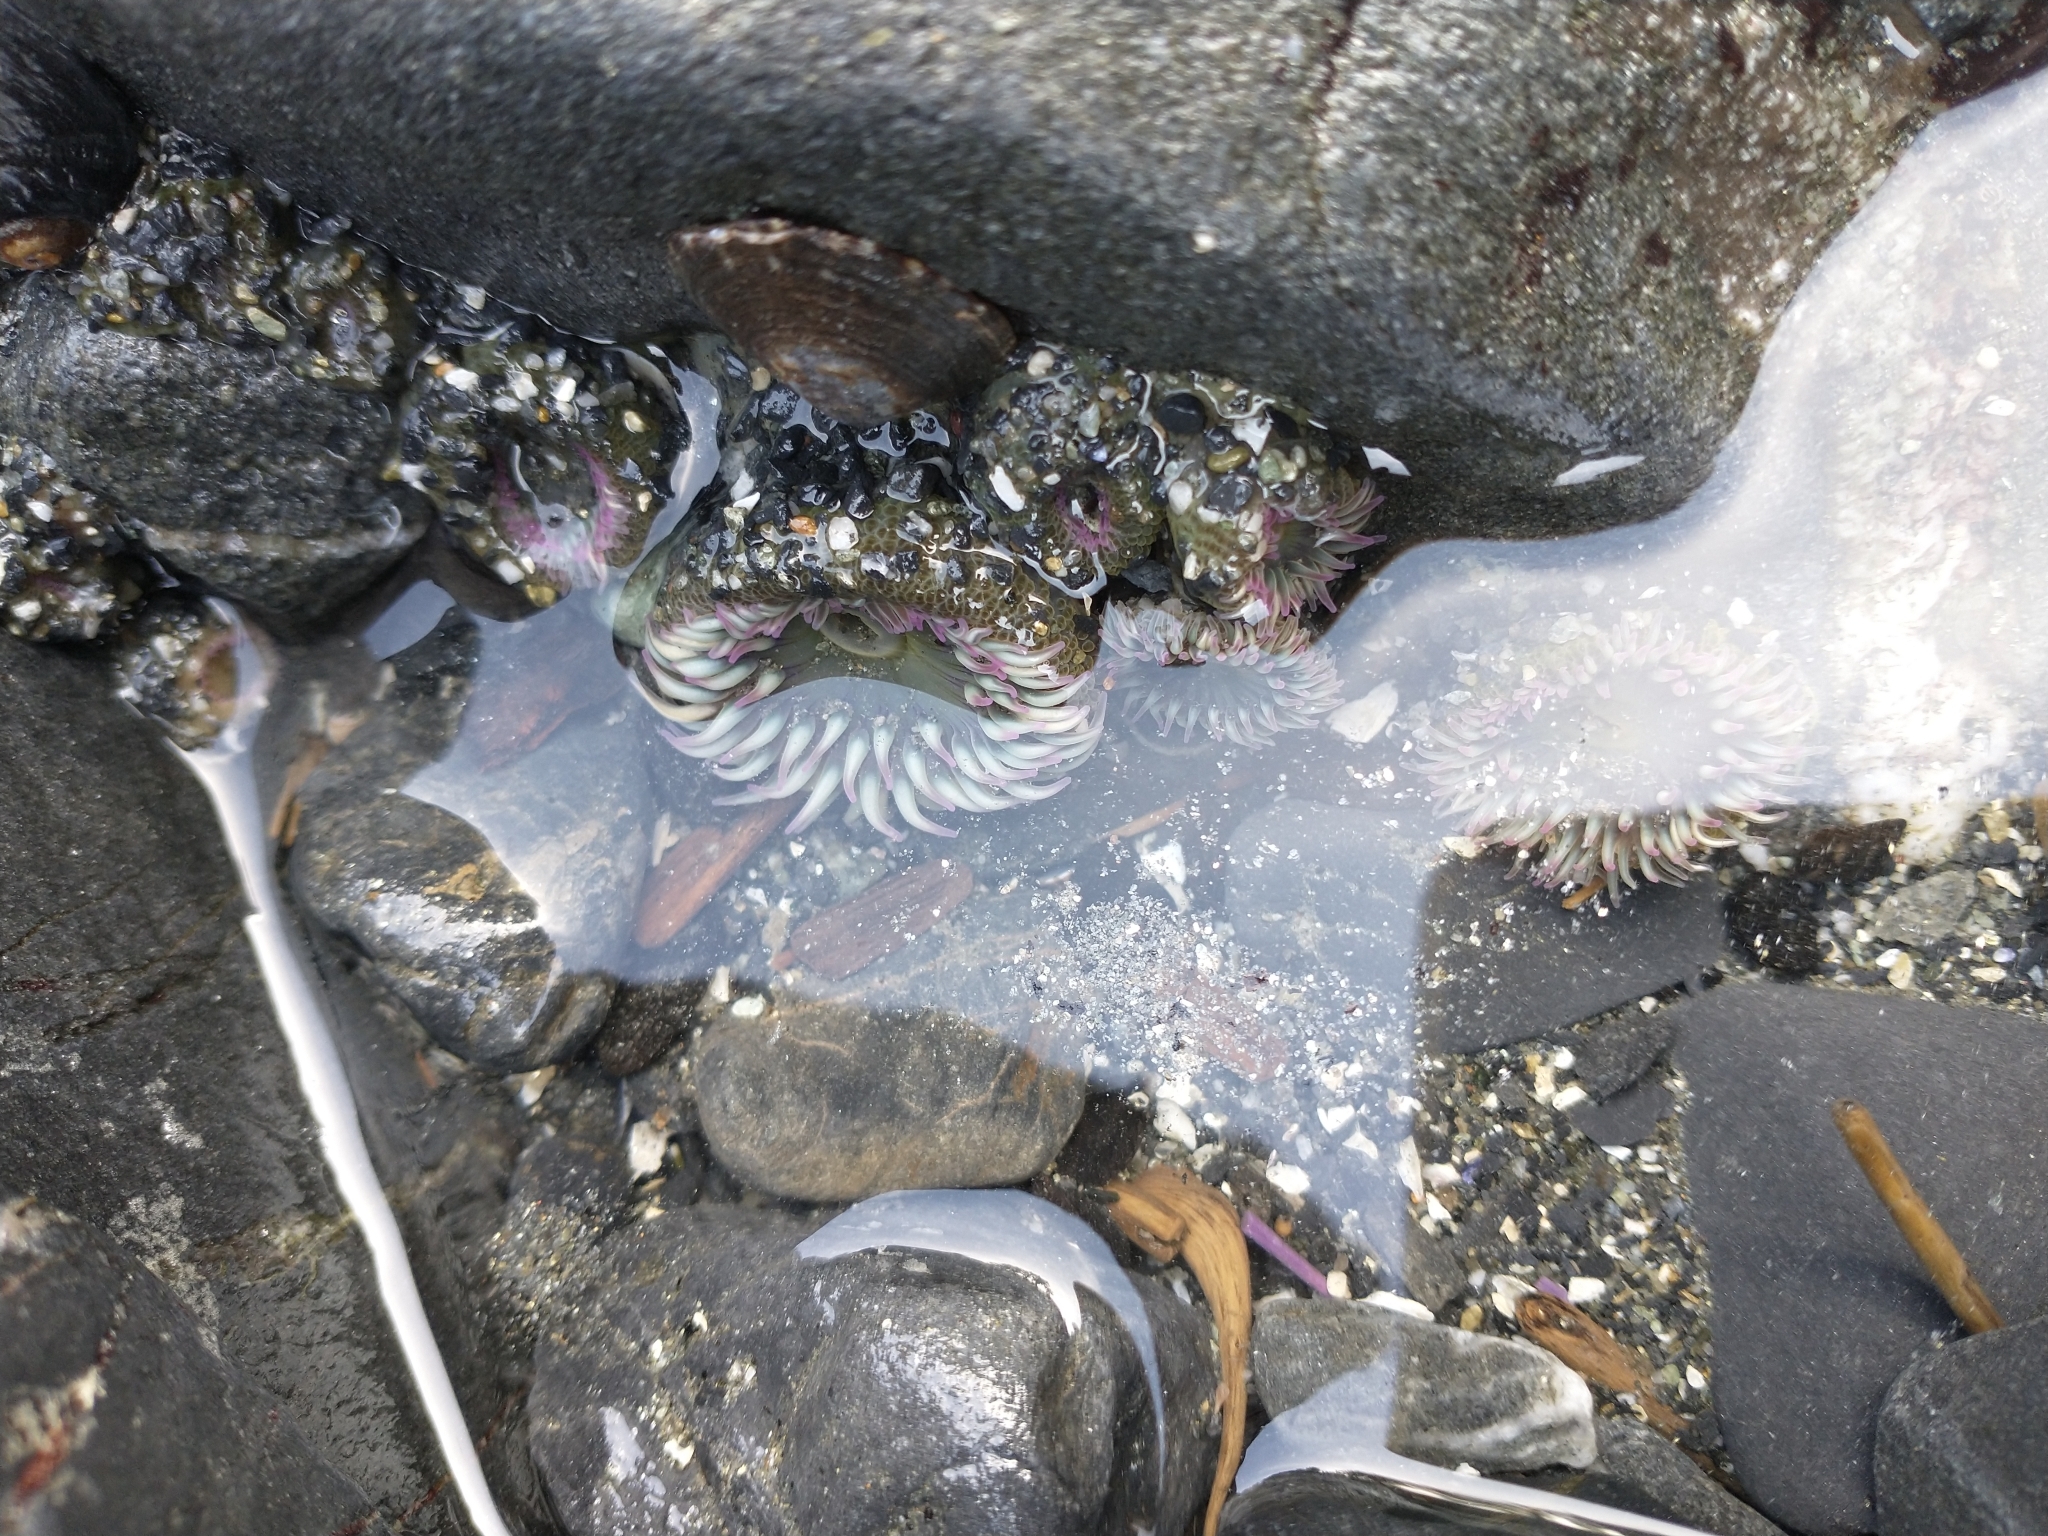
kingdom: Animalia
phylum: Cnidaria
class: Anthozoa
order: Actiniaria
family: Actiniidae
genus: Anthopleura
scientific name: Anthopleura elegantissima
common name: Clonal anemone
